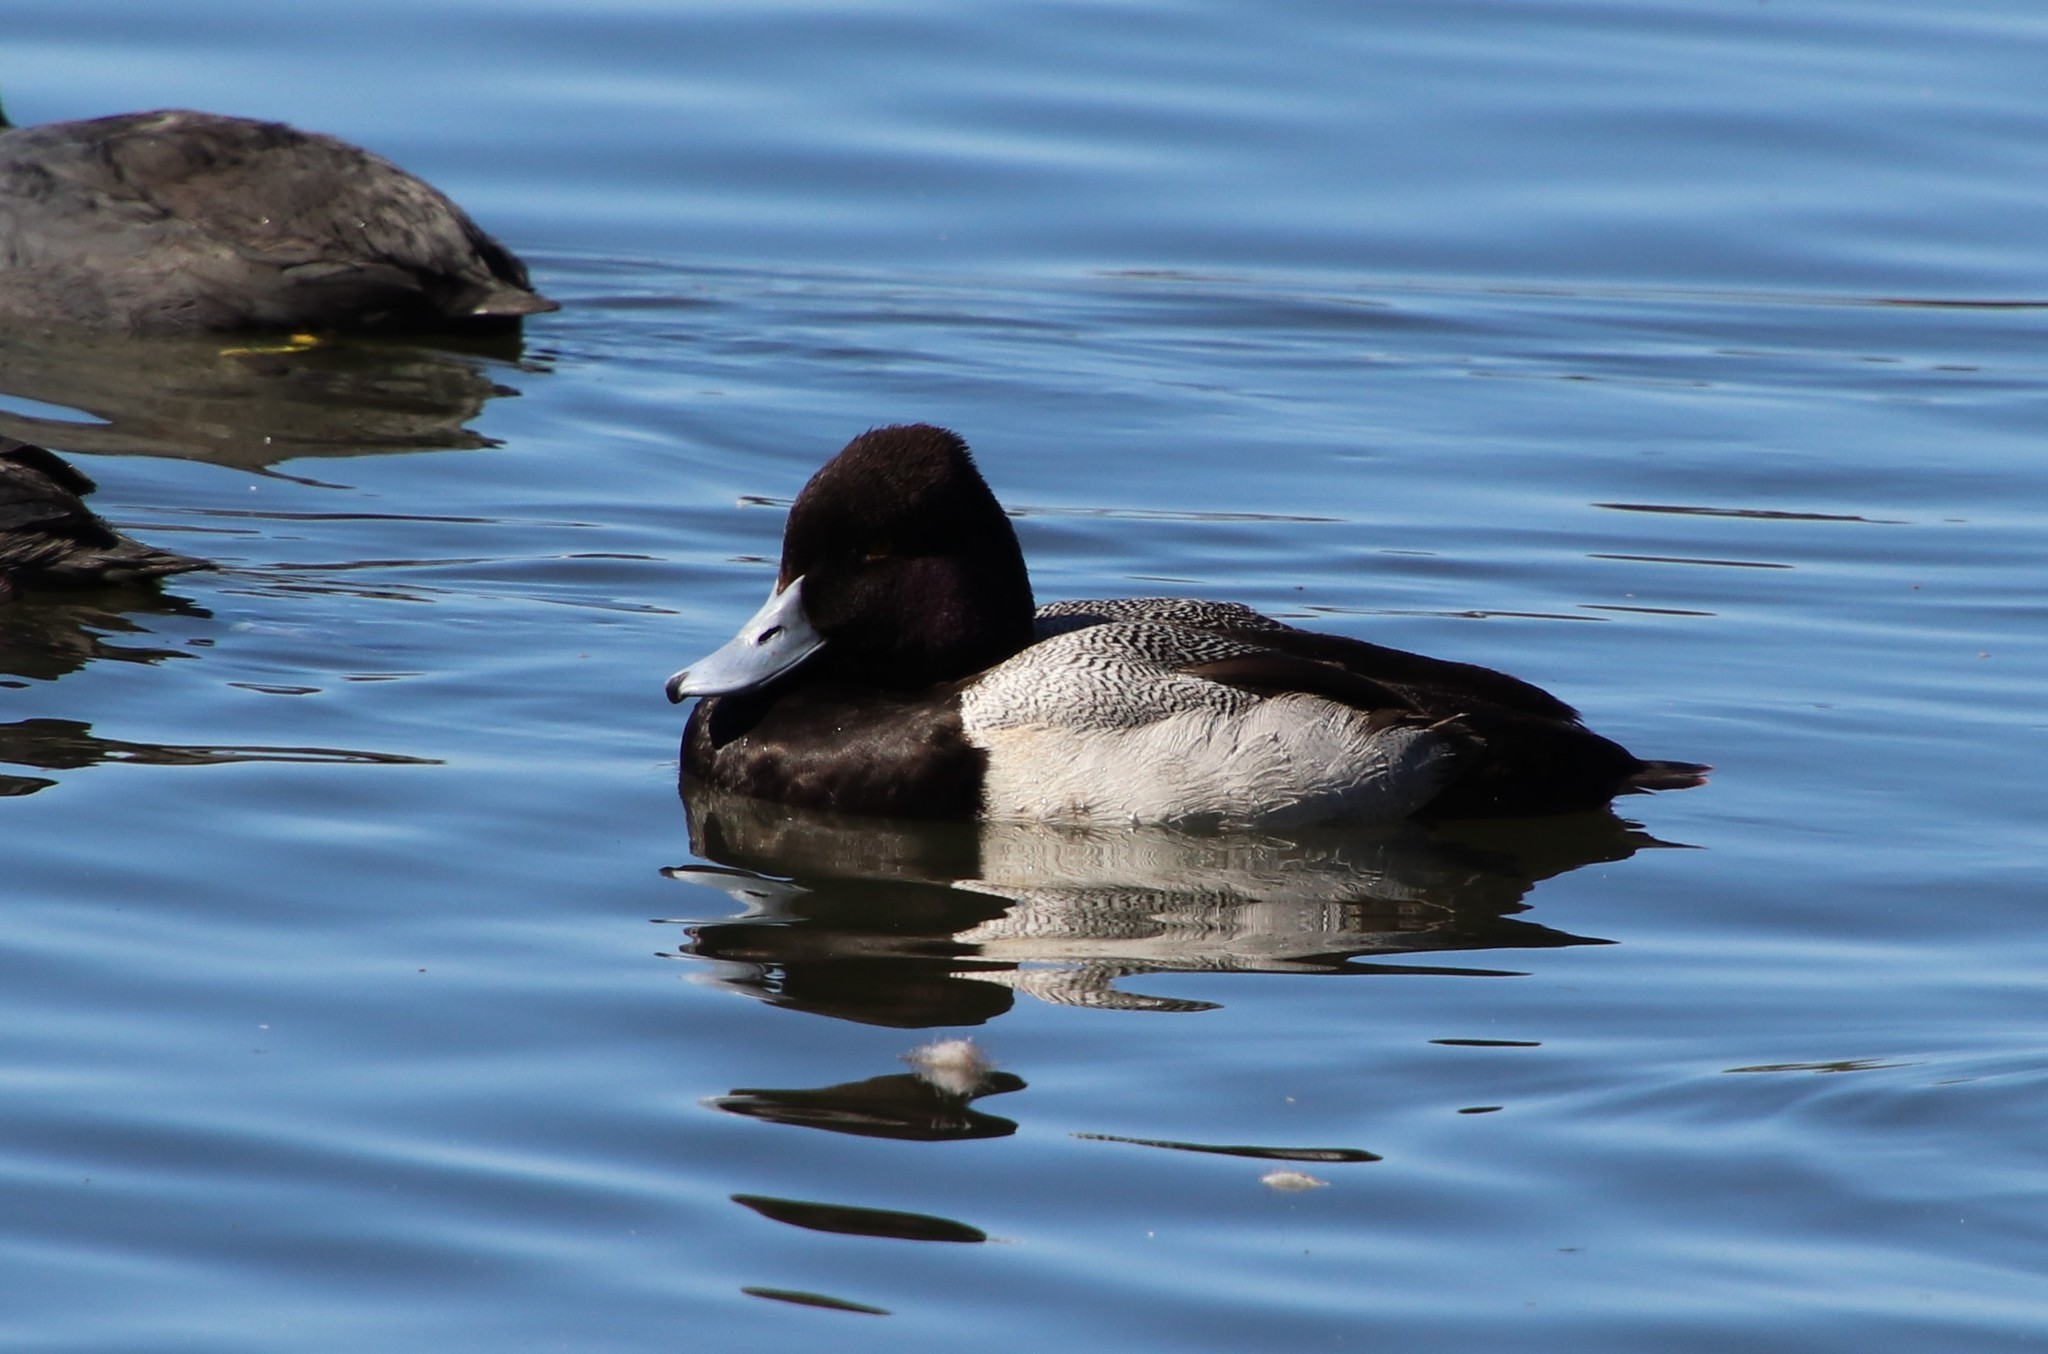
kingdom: Animalia
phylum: Chordata
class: Aves
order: Anseriformes
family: Anatidae
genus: Aythya
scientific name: Aythya affinis
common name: Lesser scaup
